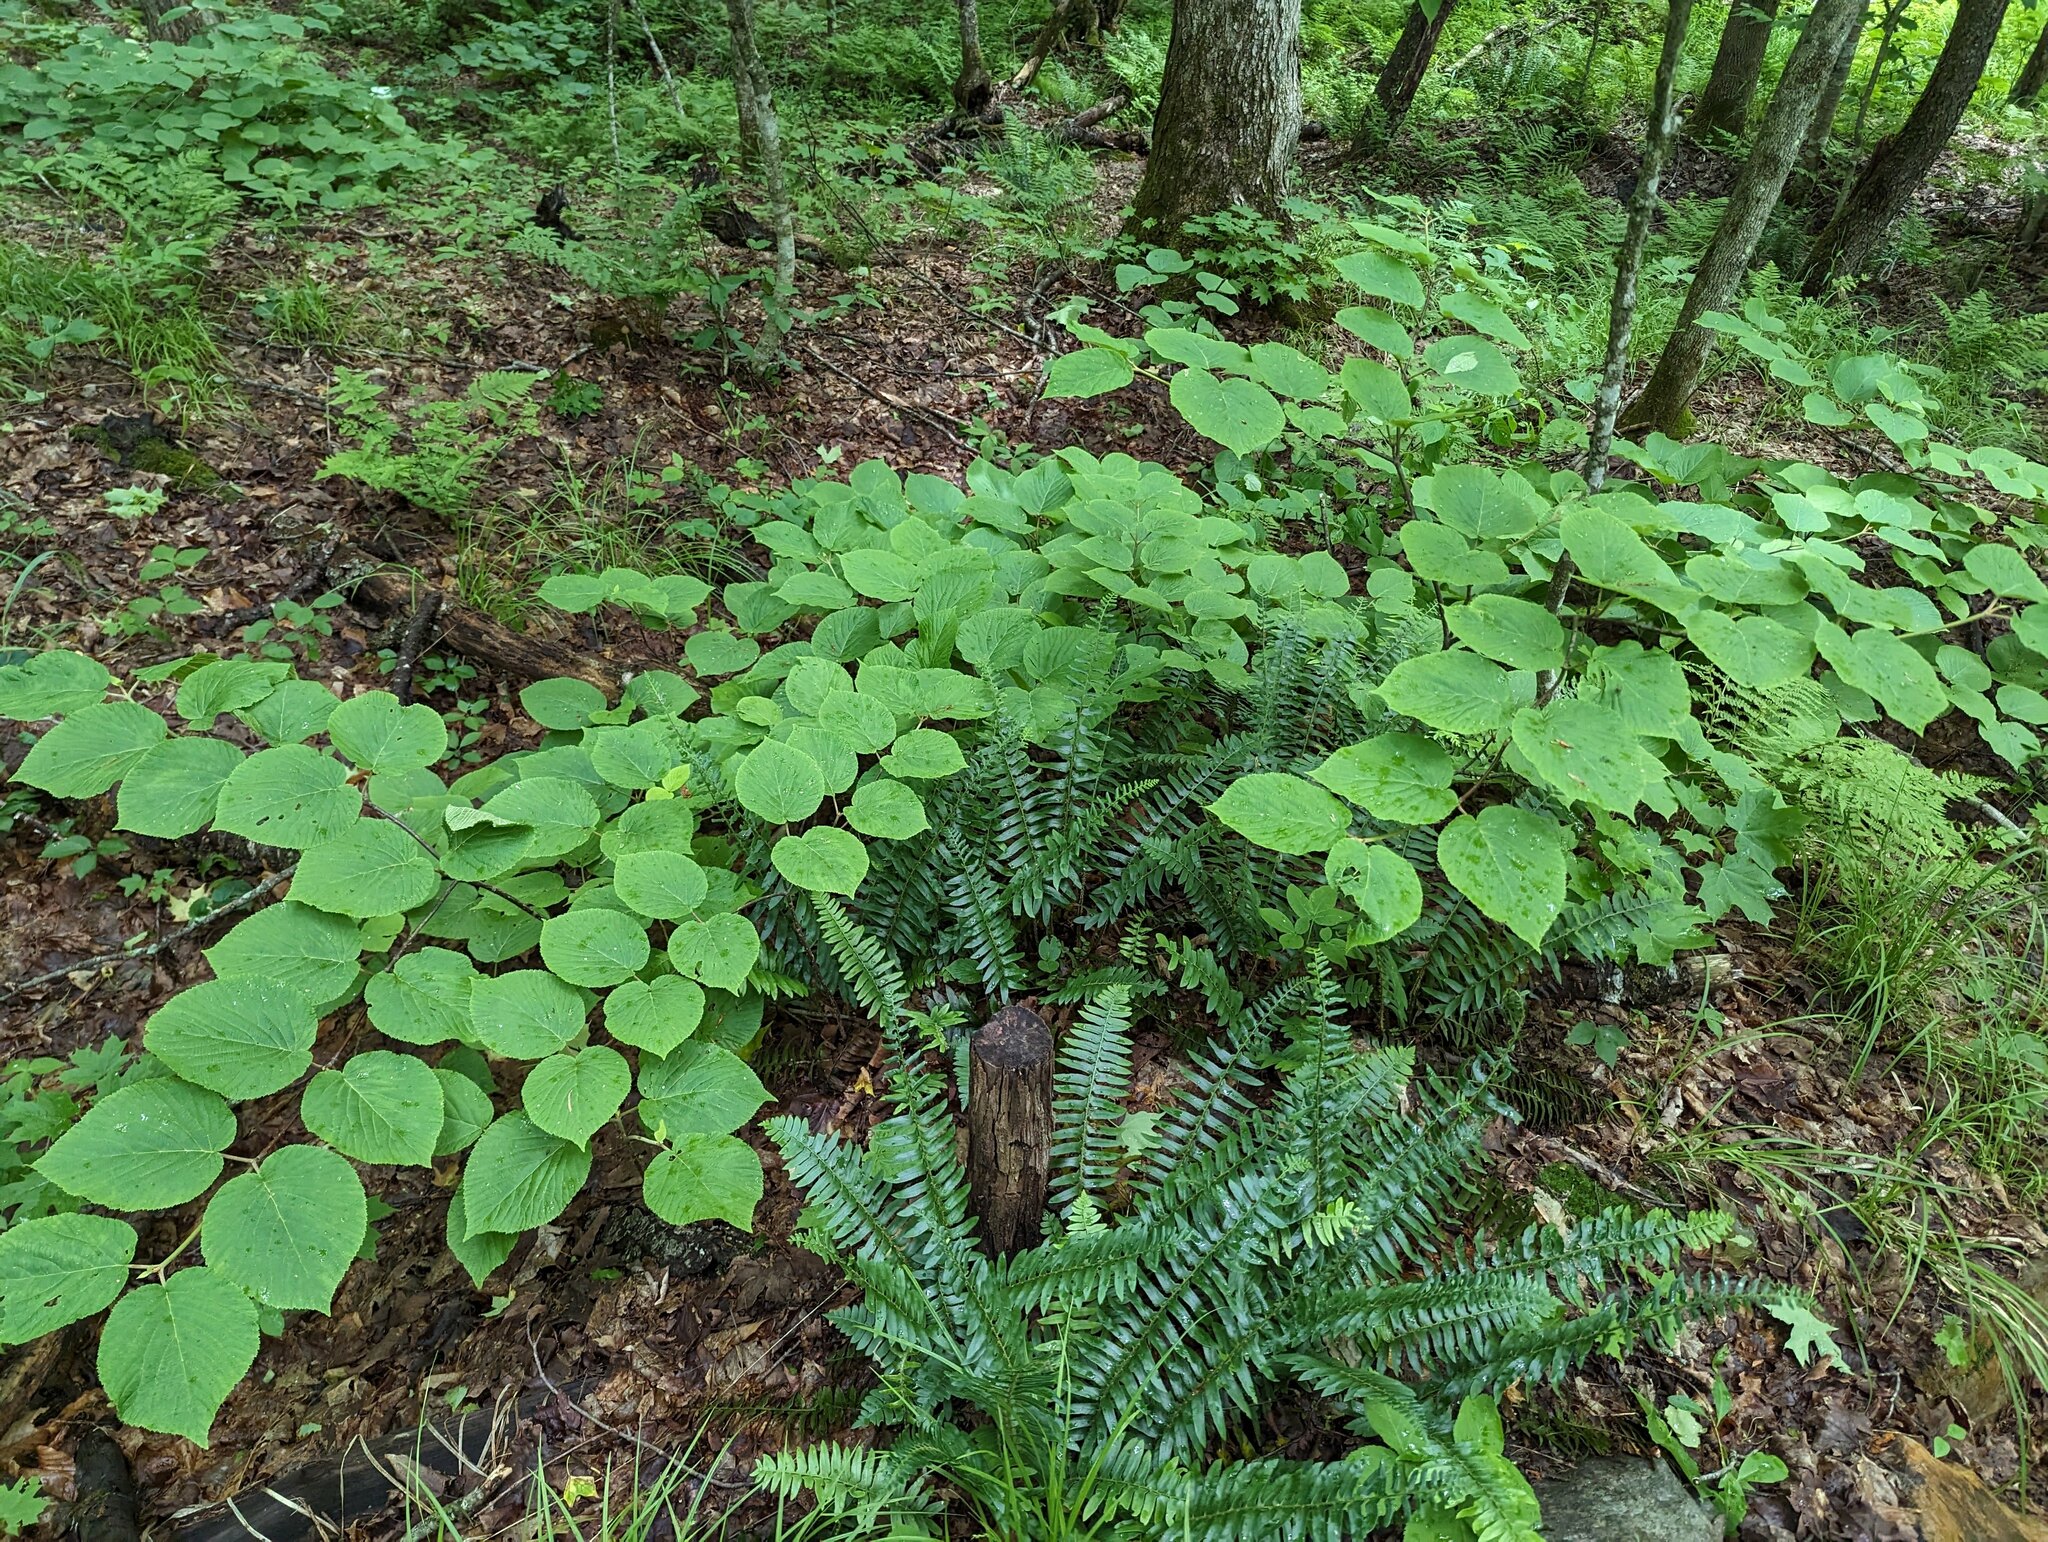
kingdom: Plantae
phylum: Tracheophyta
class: Magnoliopsida
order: Dipsacales
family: Viburnaceae
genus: Viburnum
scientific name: Viburnum lantanoides
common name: Hobblebush
